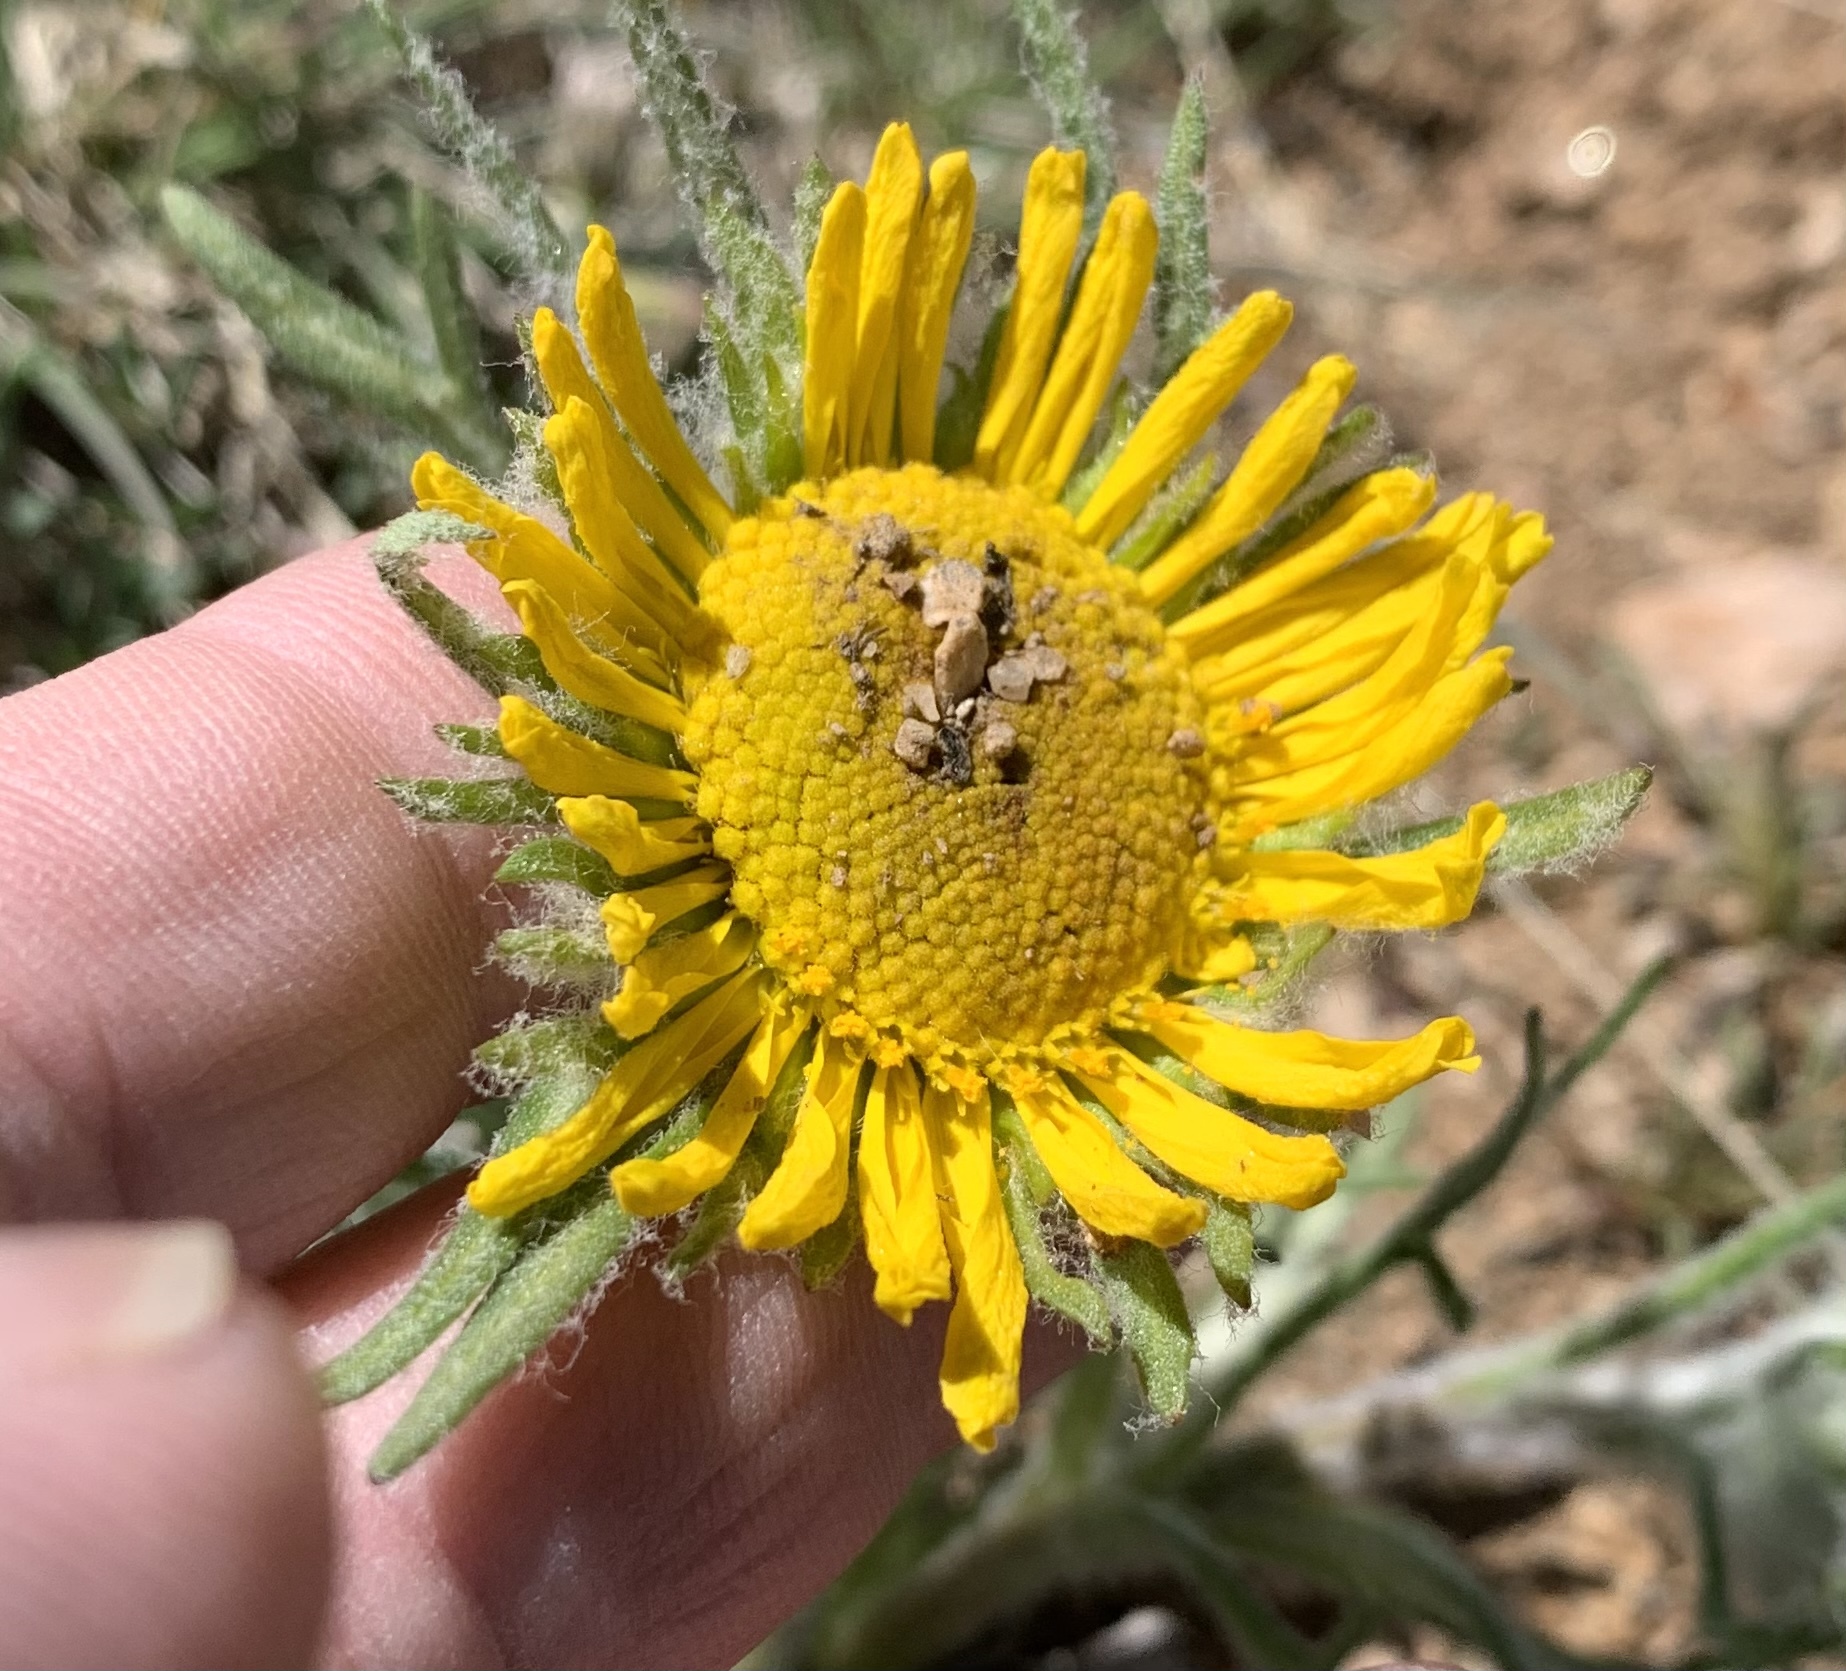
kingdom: Plantae
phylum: Tracheophyta
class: Magnoliopsida
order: Asterales
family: Asteraceae
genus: Hymenoxys
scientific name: Hymenoxys grandiflora
